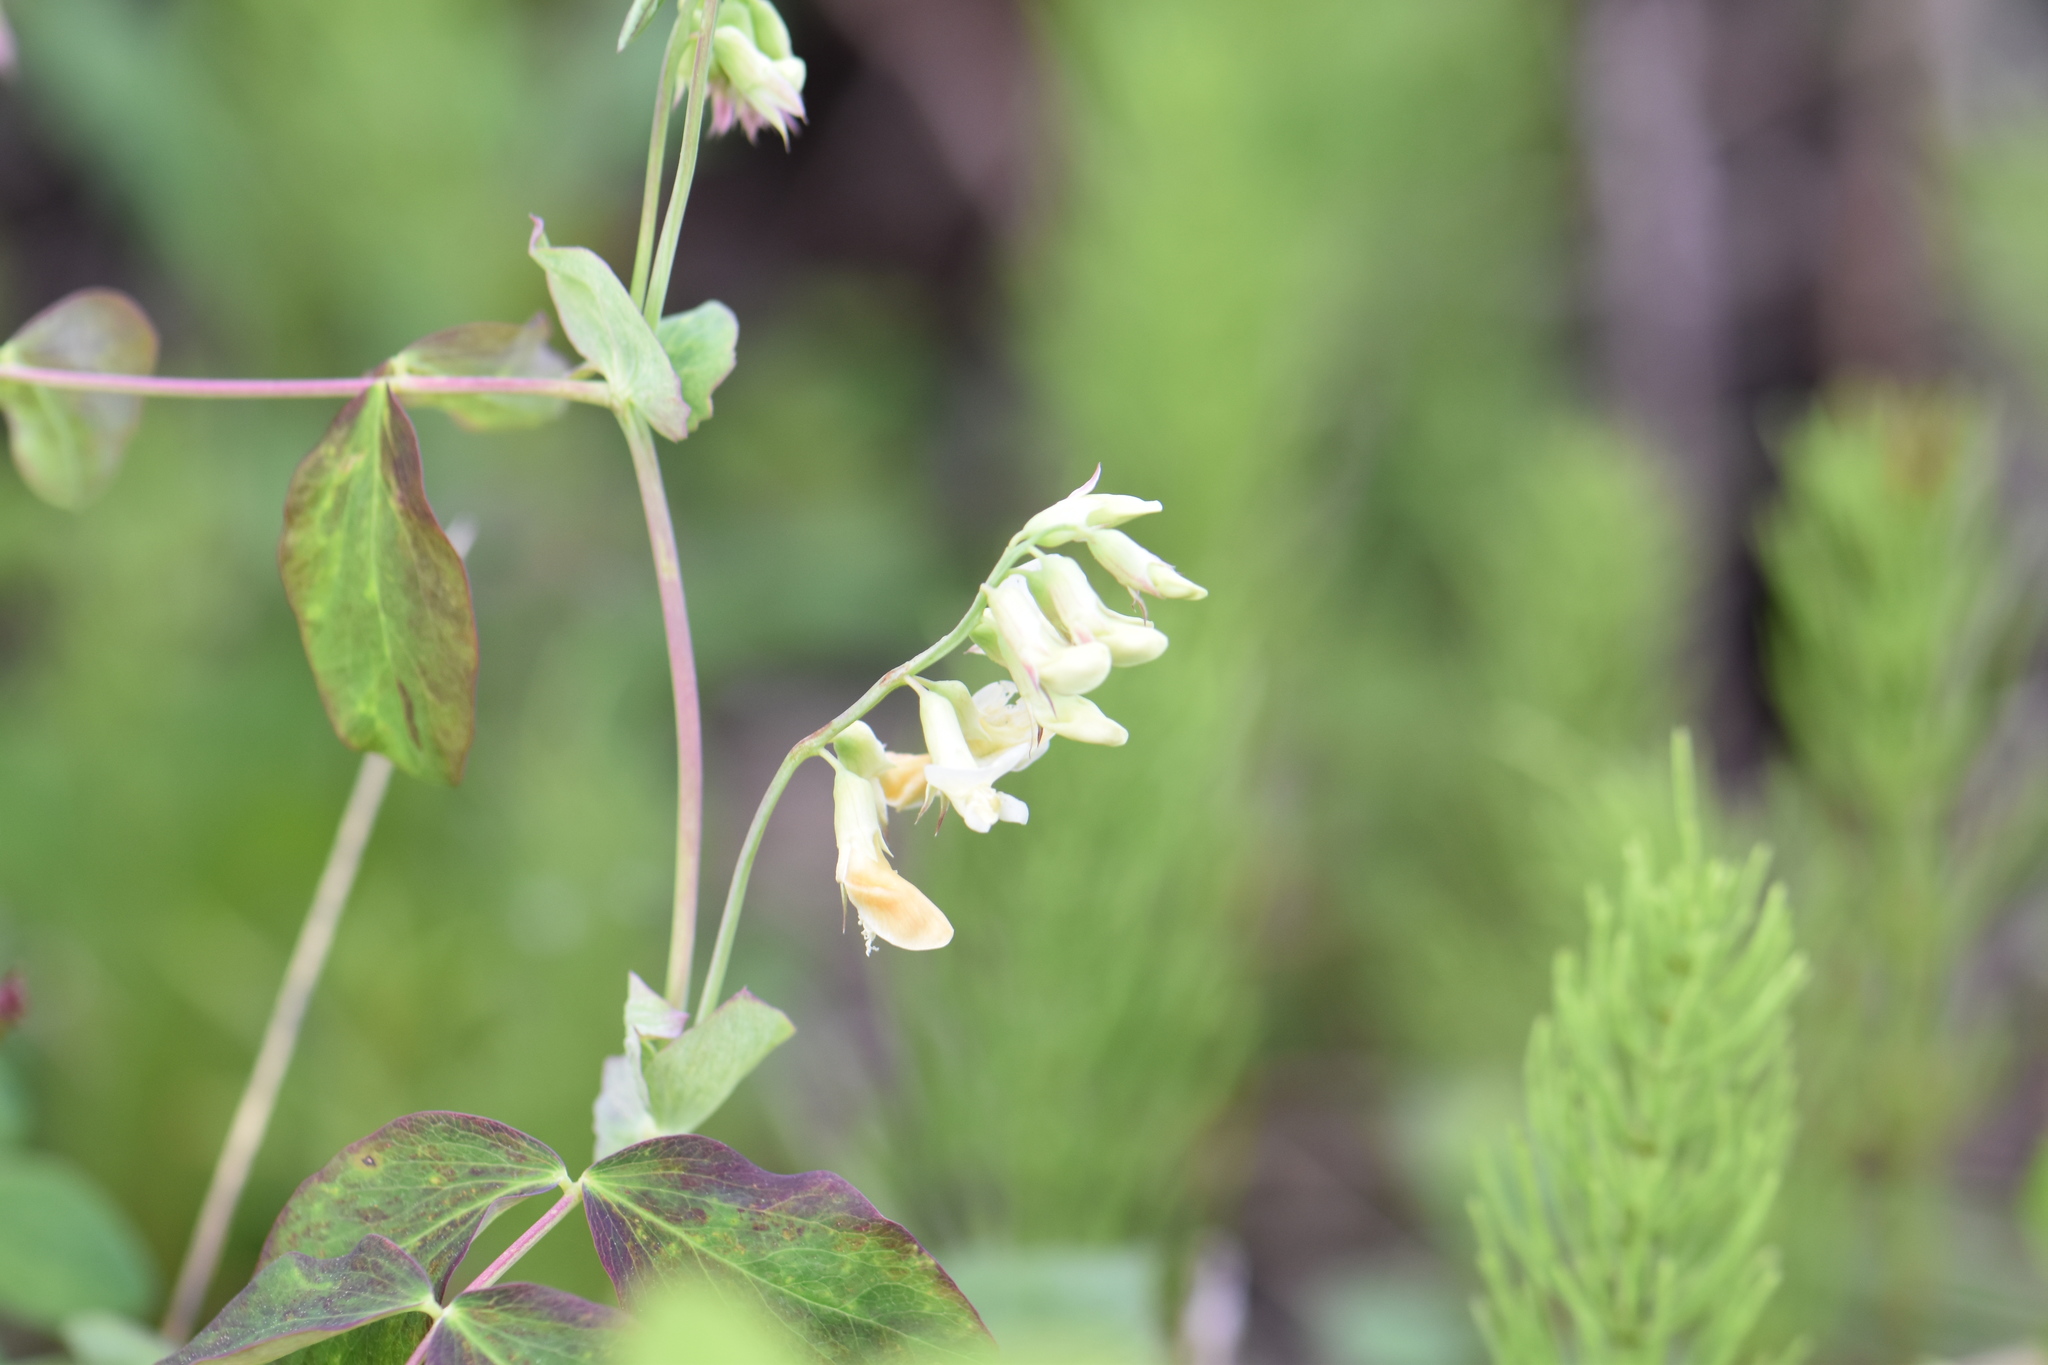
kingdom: Plantae
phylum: Tracheophyta
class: Magnoliopsida
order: Fabales
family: Fabaceae
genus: Lathyrus
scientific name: Lathyrus ochroleucus
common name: Pale vetchling
